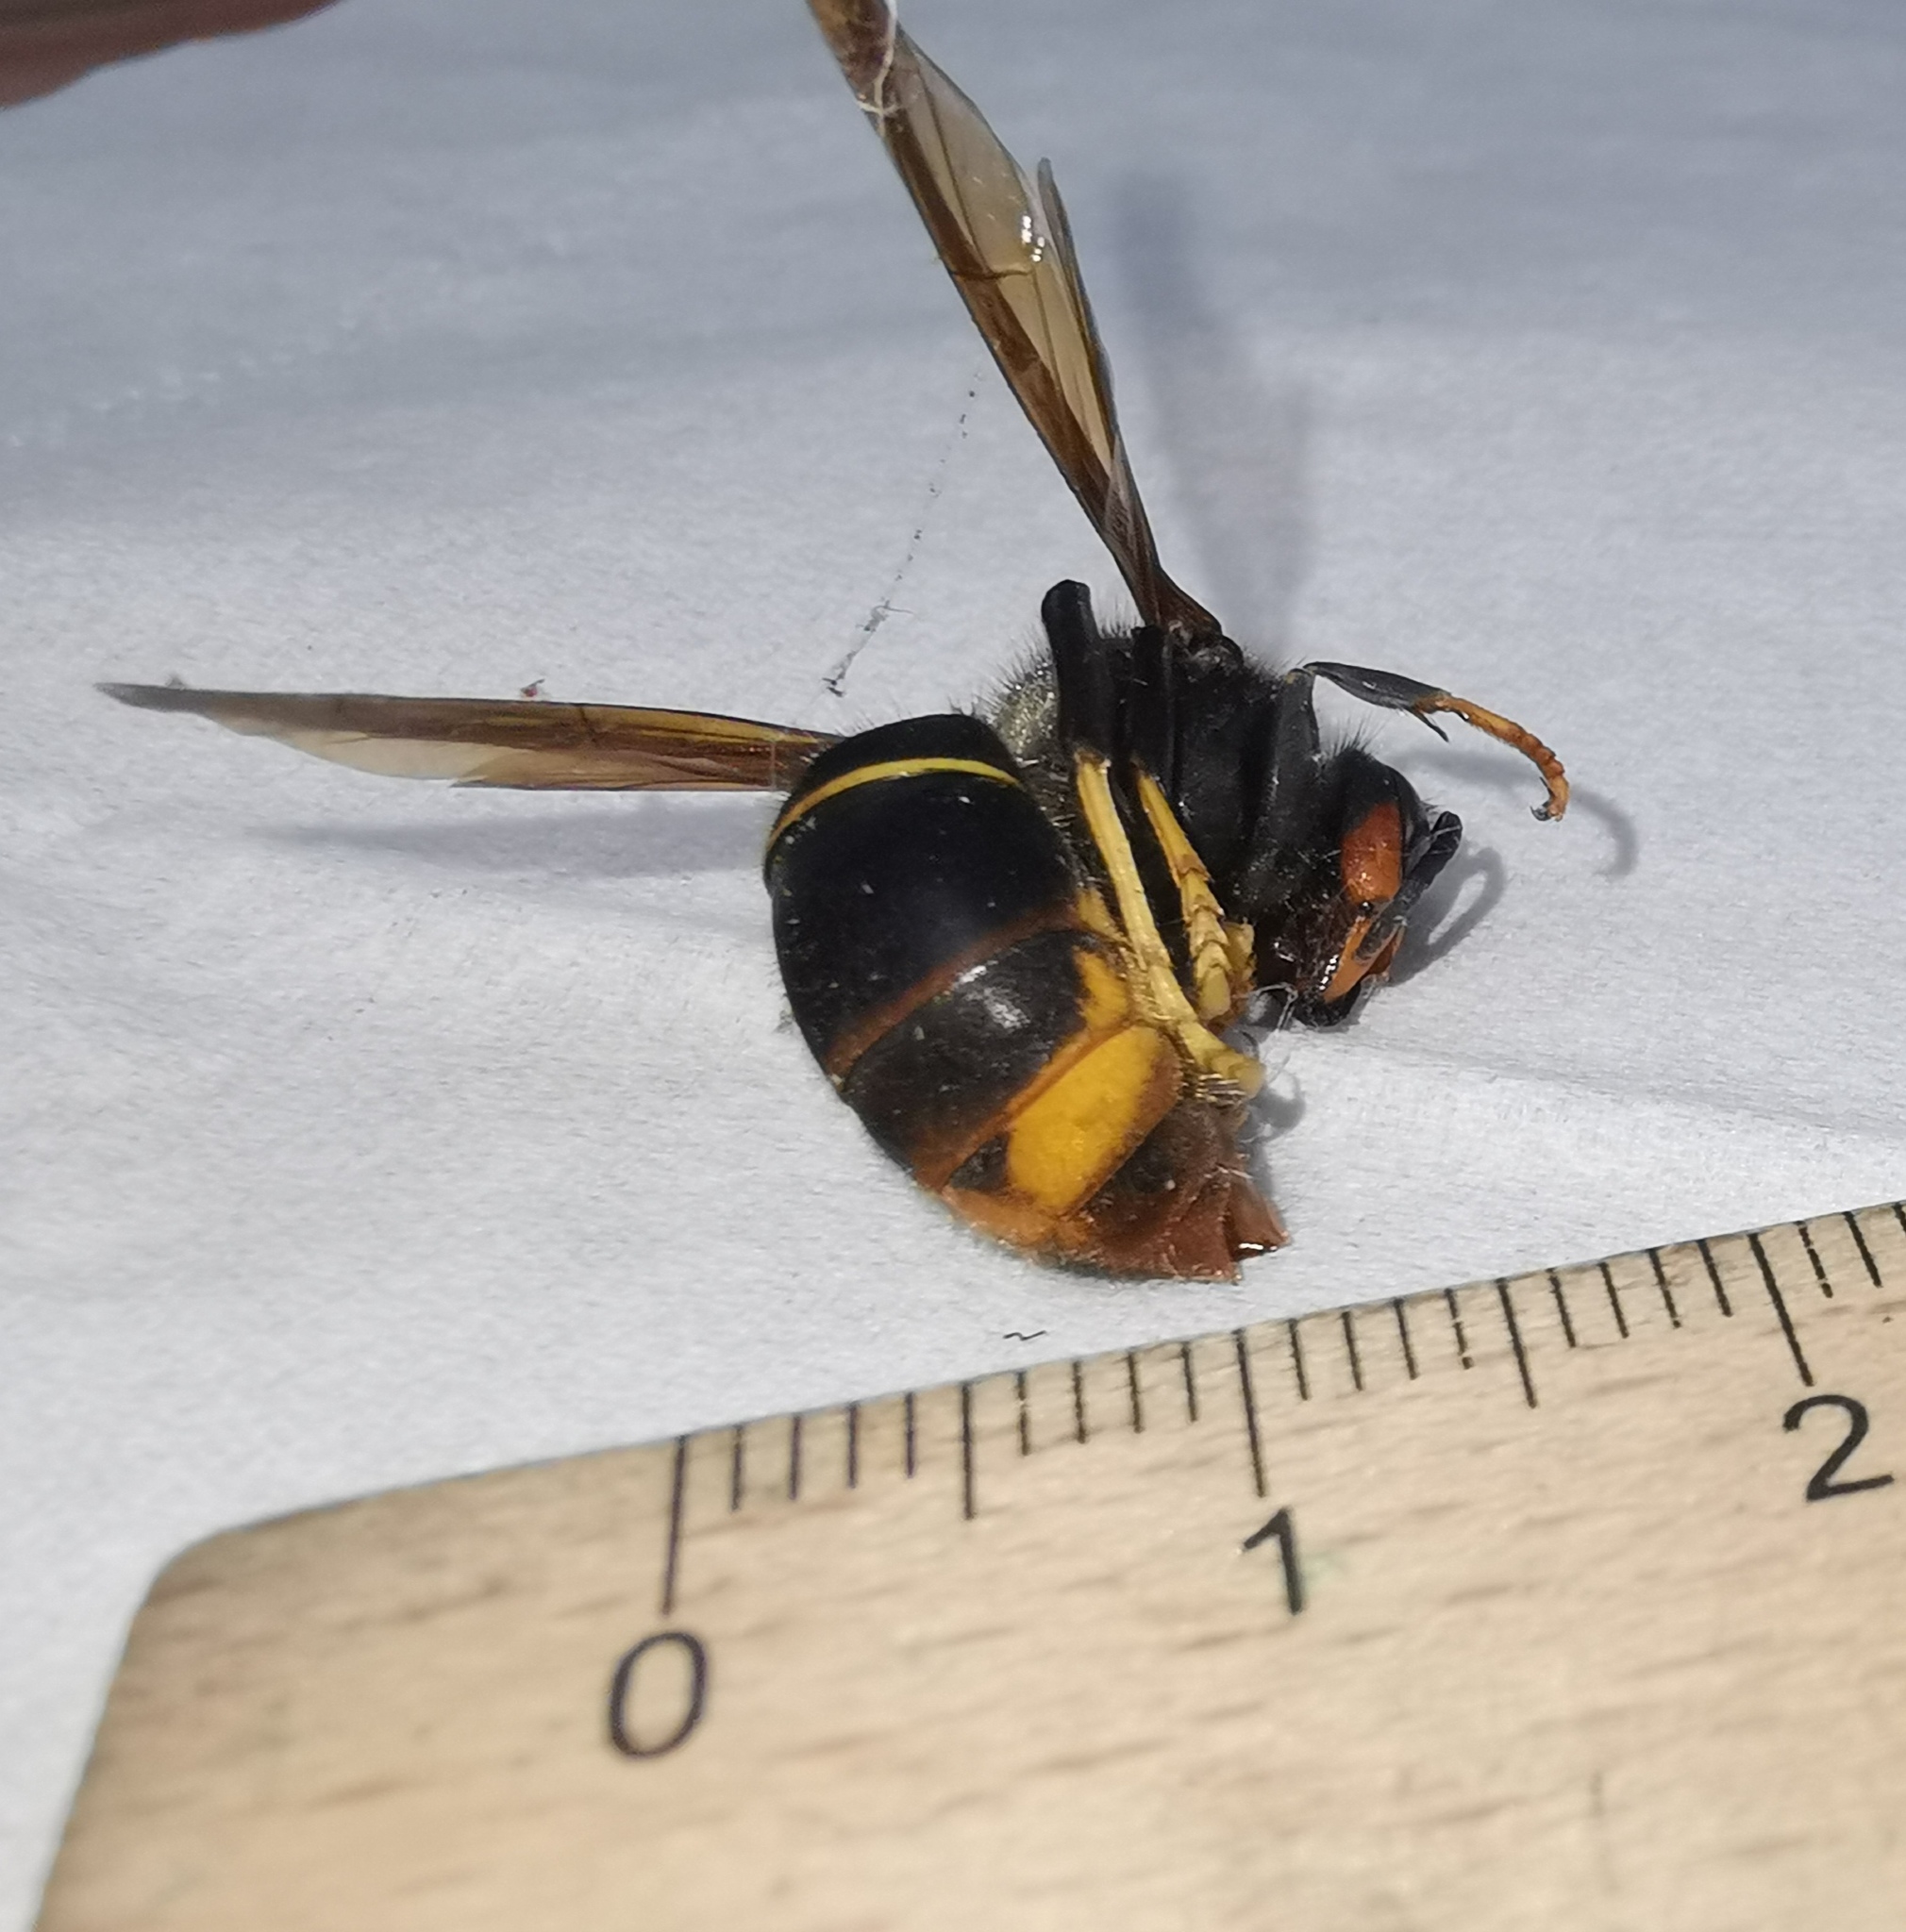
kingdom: Animalia
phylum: Arthropoda
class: Insecta
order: Hymenoptera
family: Vespidae
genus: Vespa
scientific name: Vespa velutina
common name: Asian hornet
